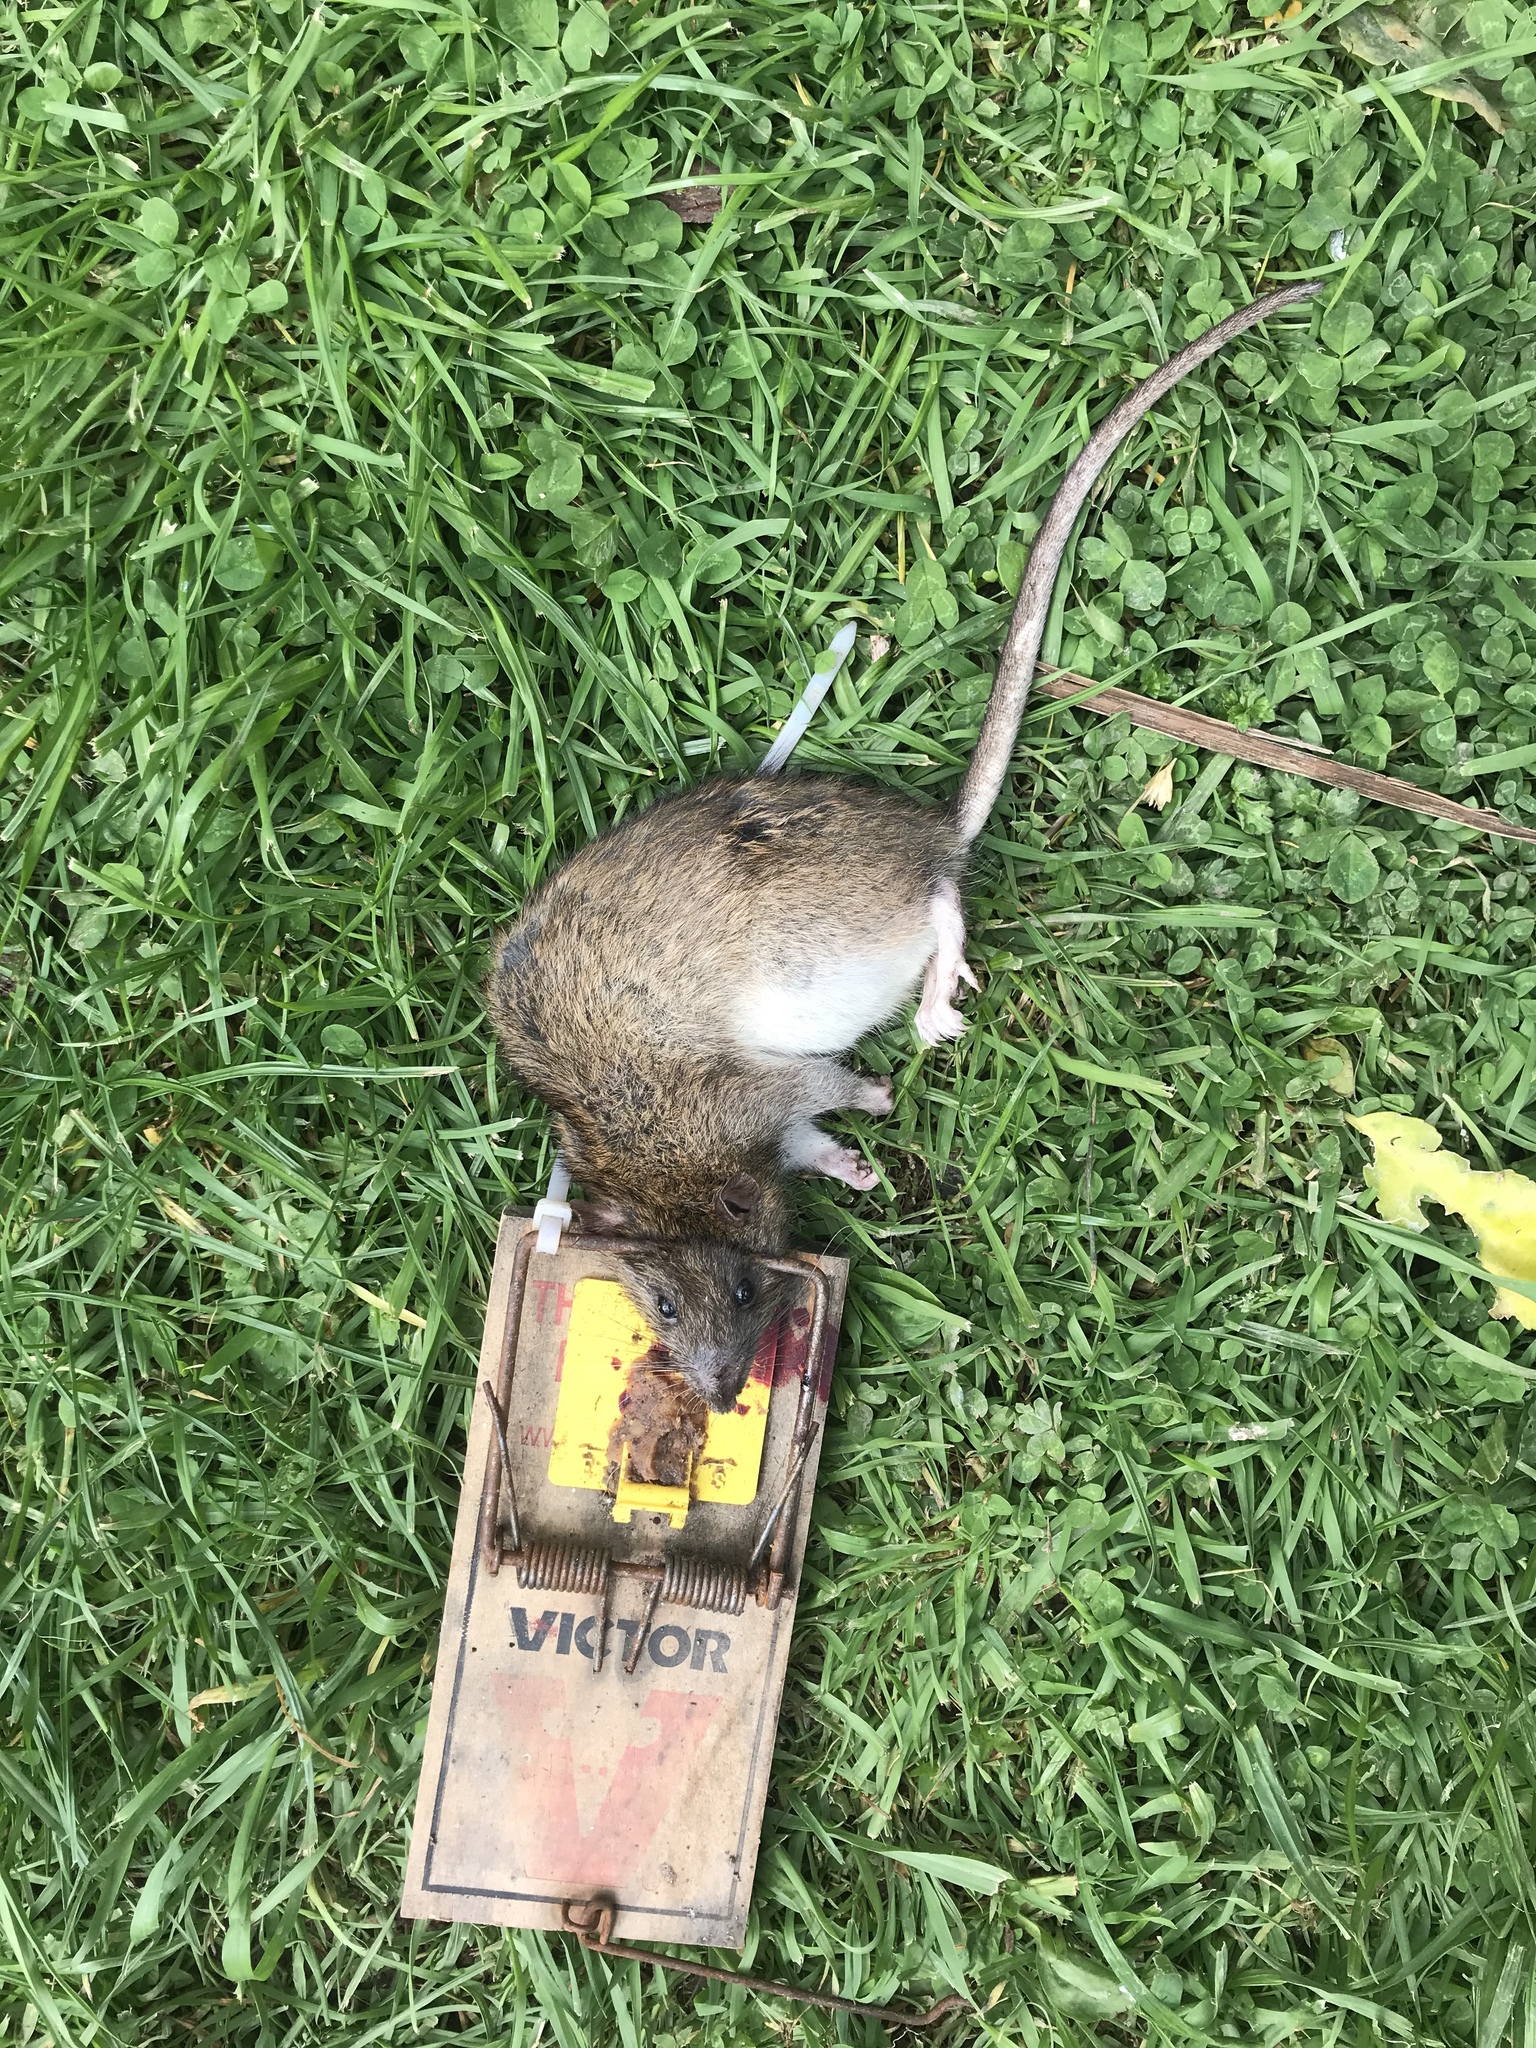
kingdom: Animalia
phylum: Chordata
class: Mammalia
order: Rodentia
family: Muridae
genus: Rattus
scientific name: Rattus norvegicus
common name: Brown rat
